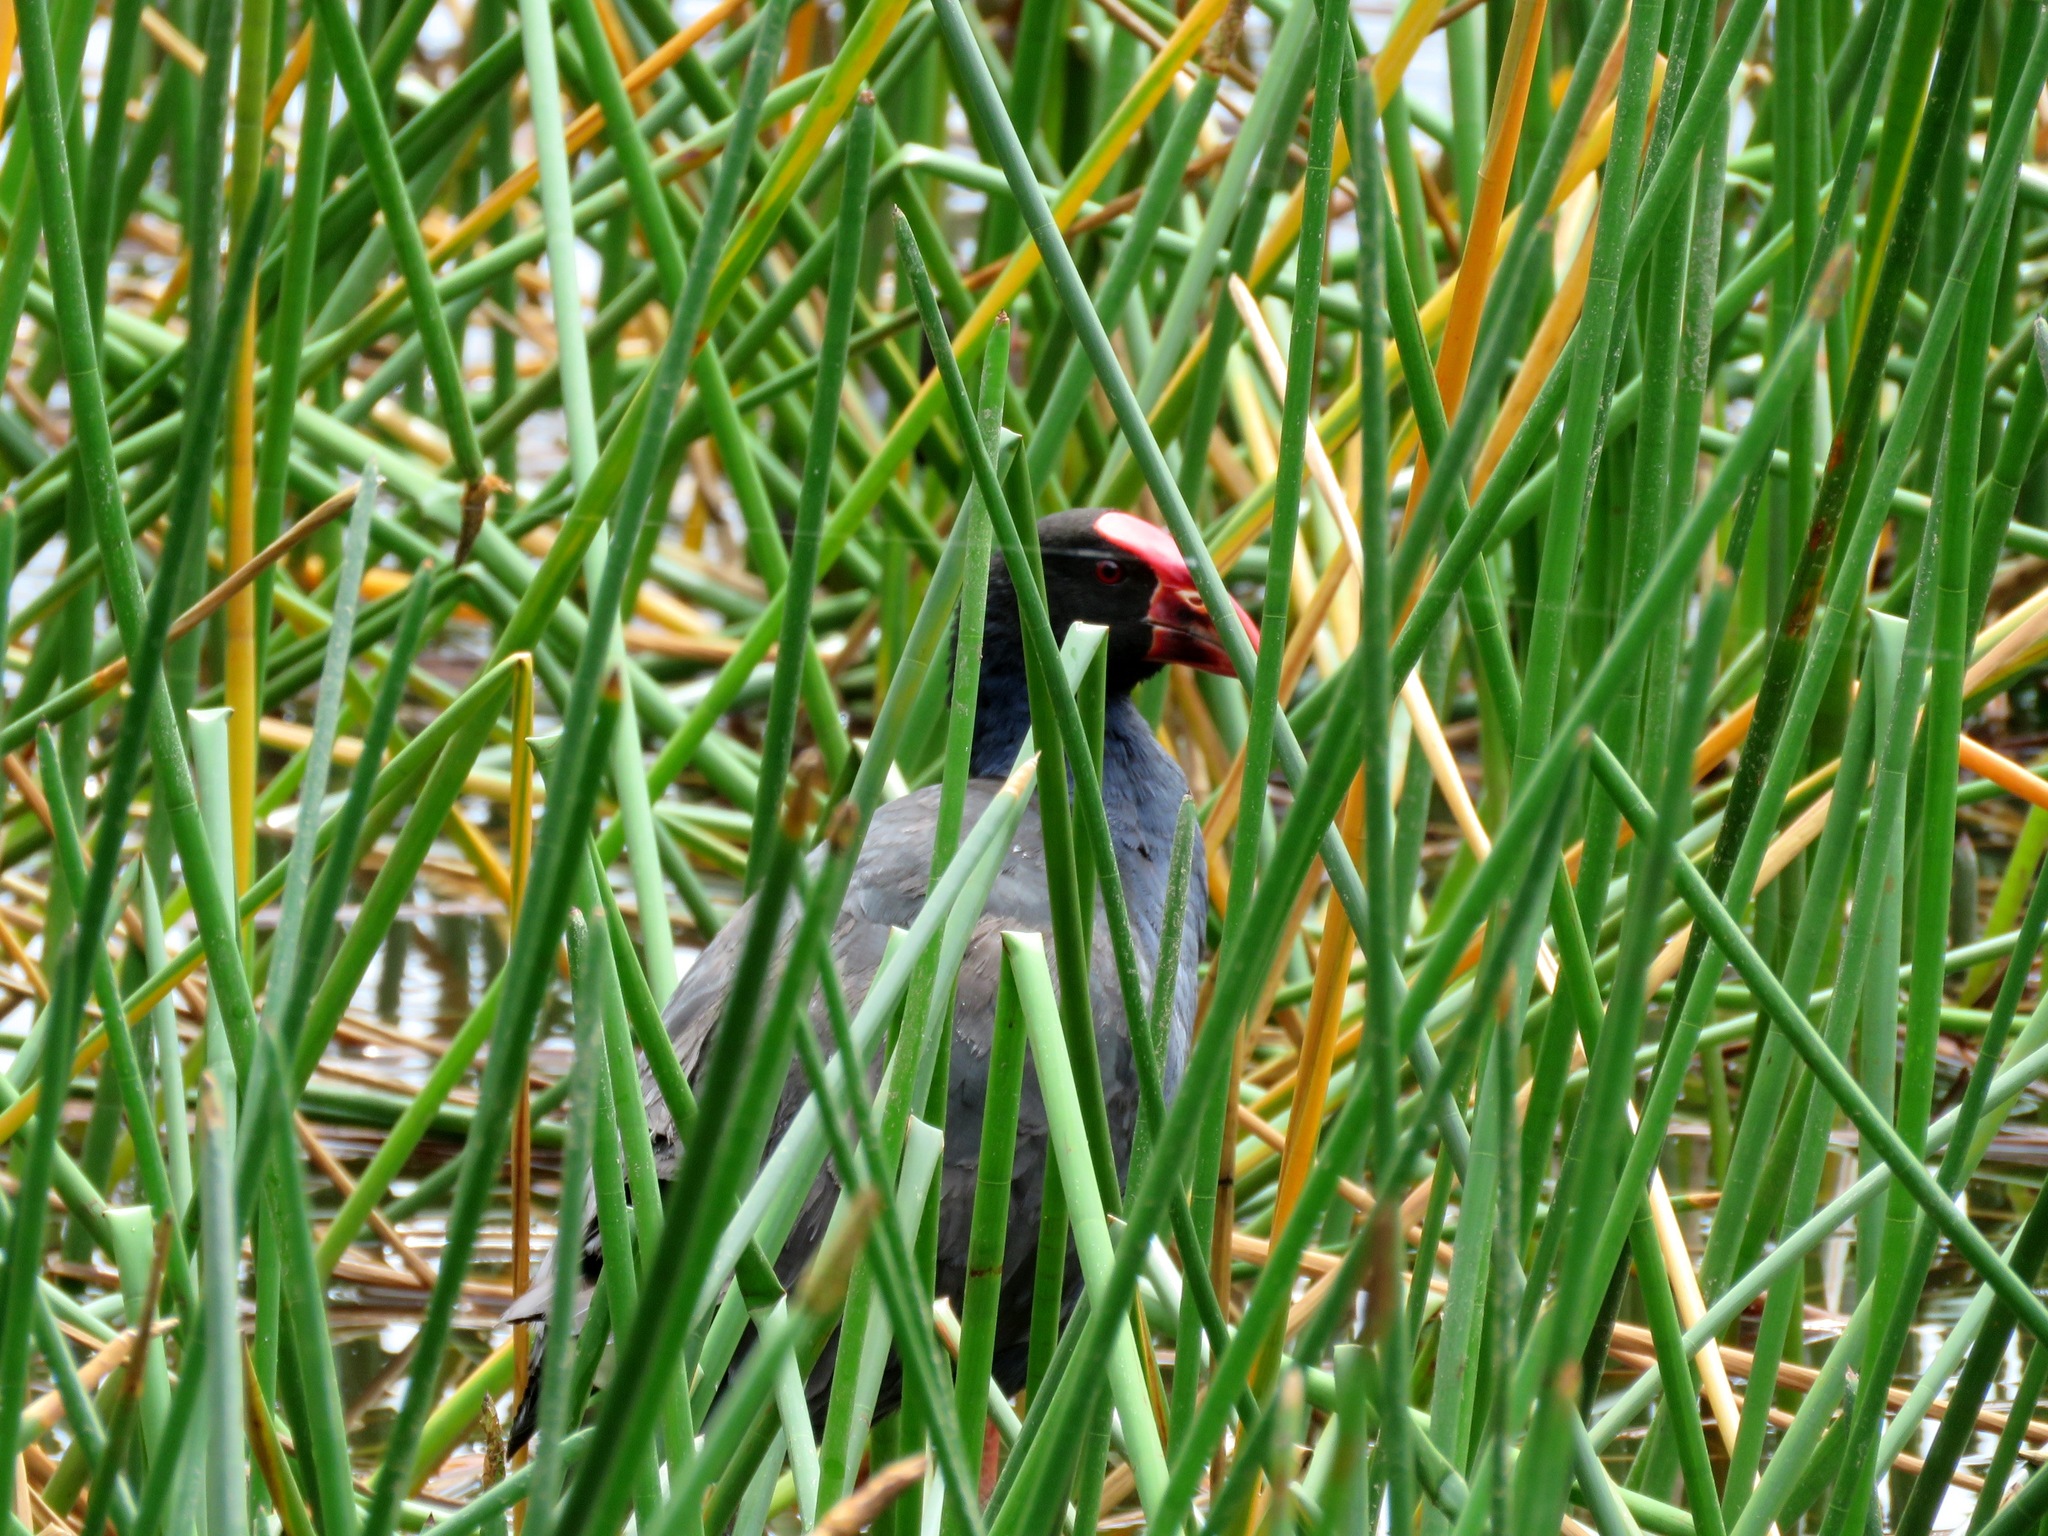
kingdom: Animalia
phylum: Chordata
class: Aves
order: Gruiformes
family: Rallidae
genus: Porphyrio
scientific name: Porphyrio melanotus
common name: Australasian swamphen
